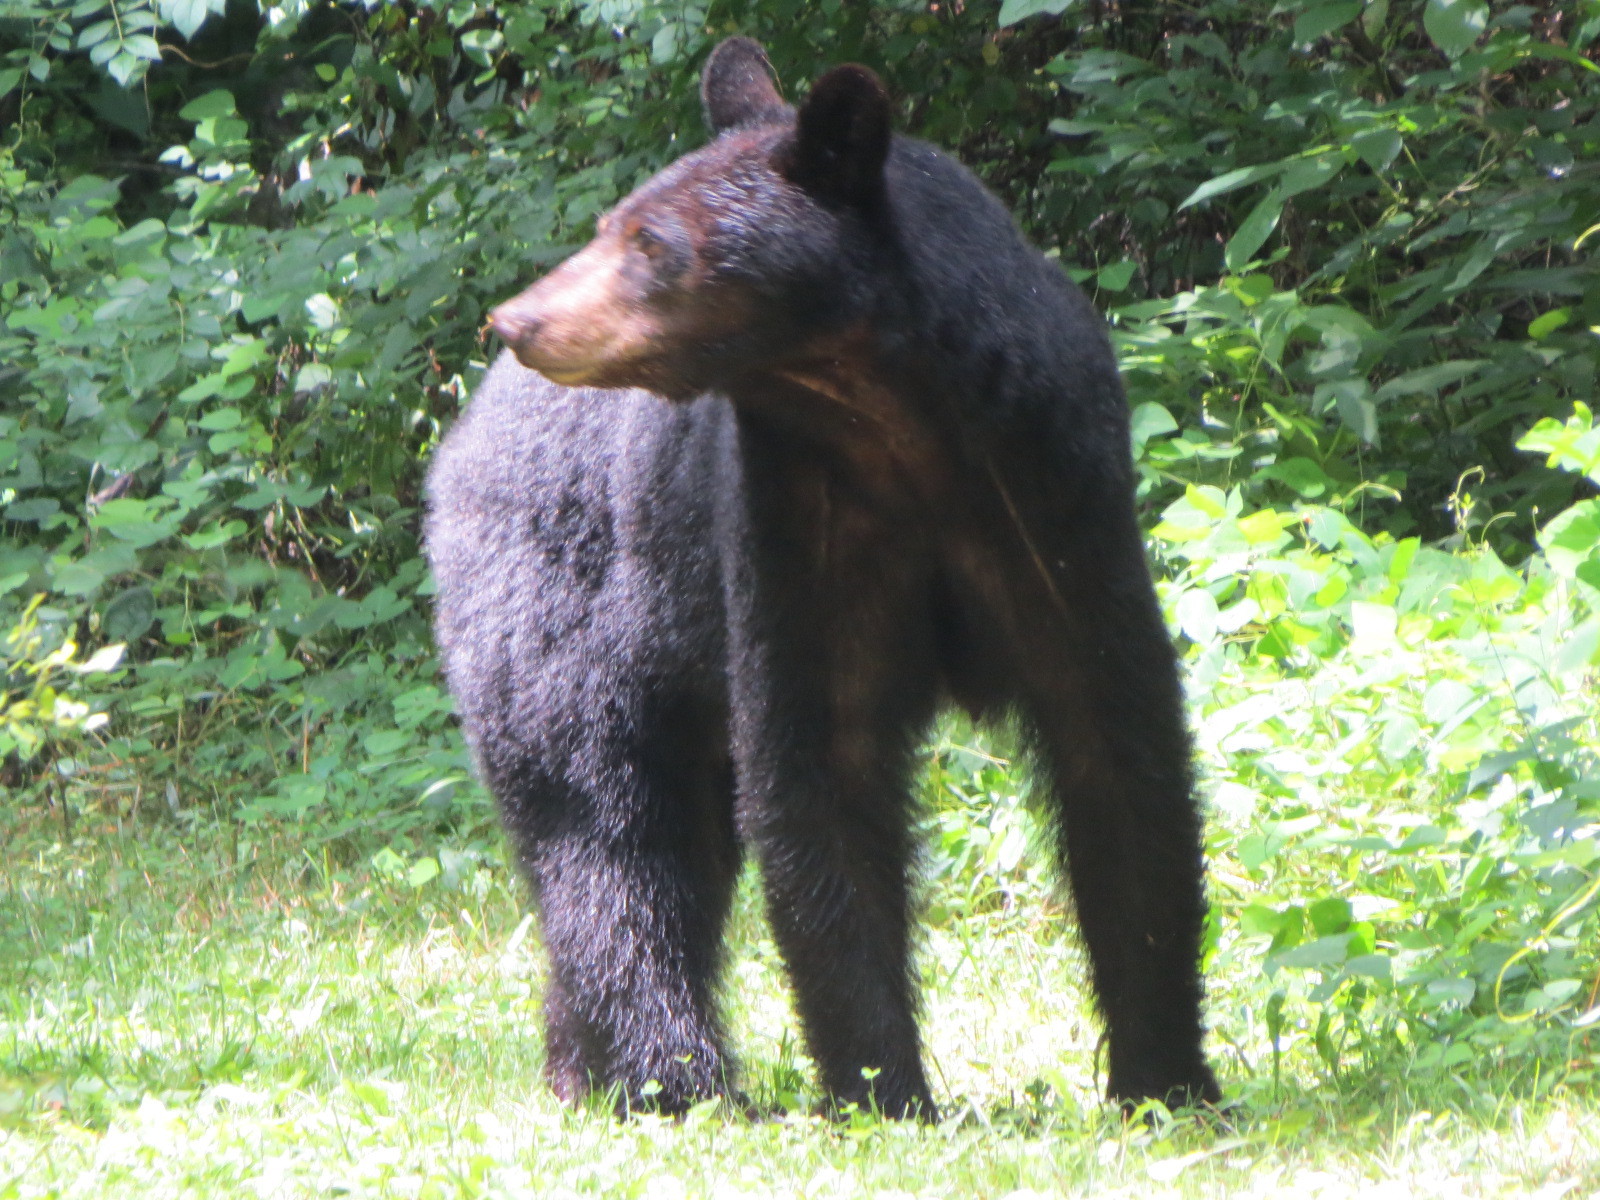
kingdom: Animalia
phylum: Chordata
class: Mammalia
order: Carnivora
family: Ursidae
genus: Ursus
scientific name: Ursus americanus
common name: American black bear
